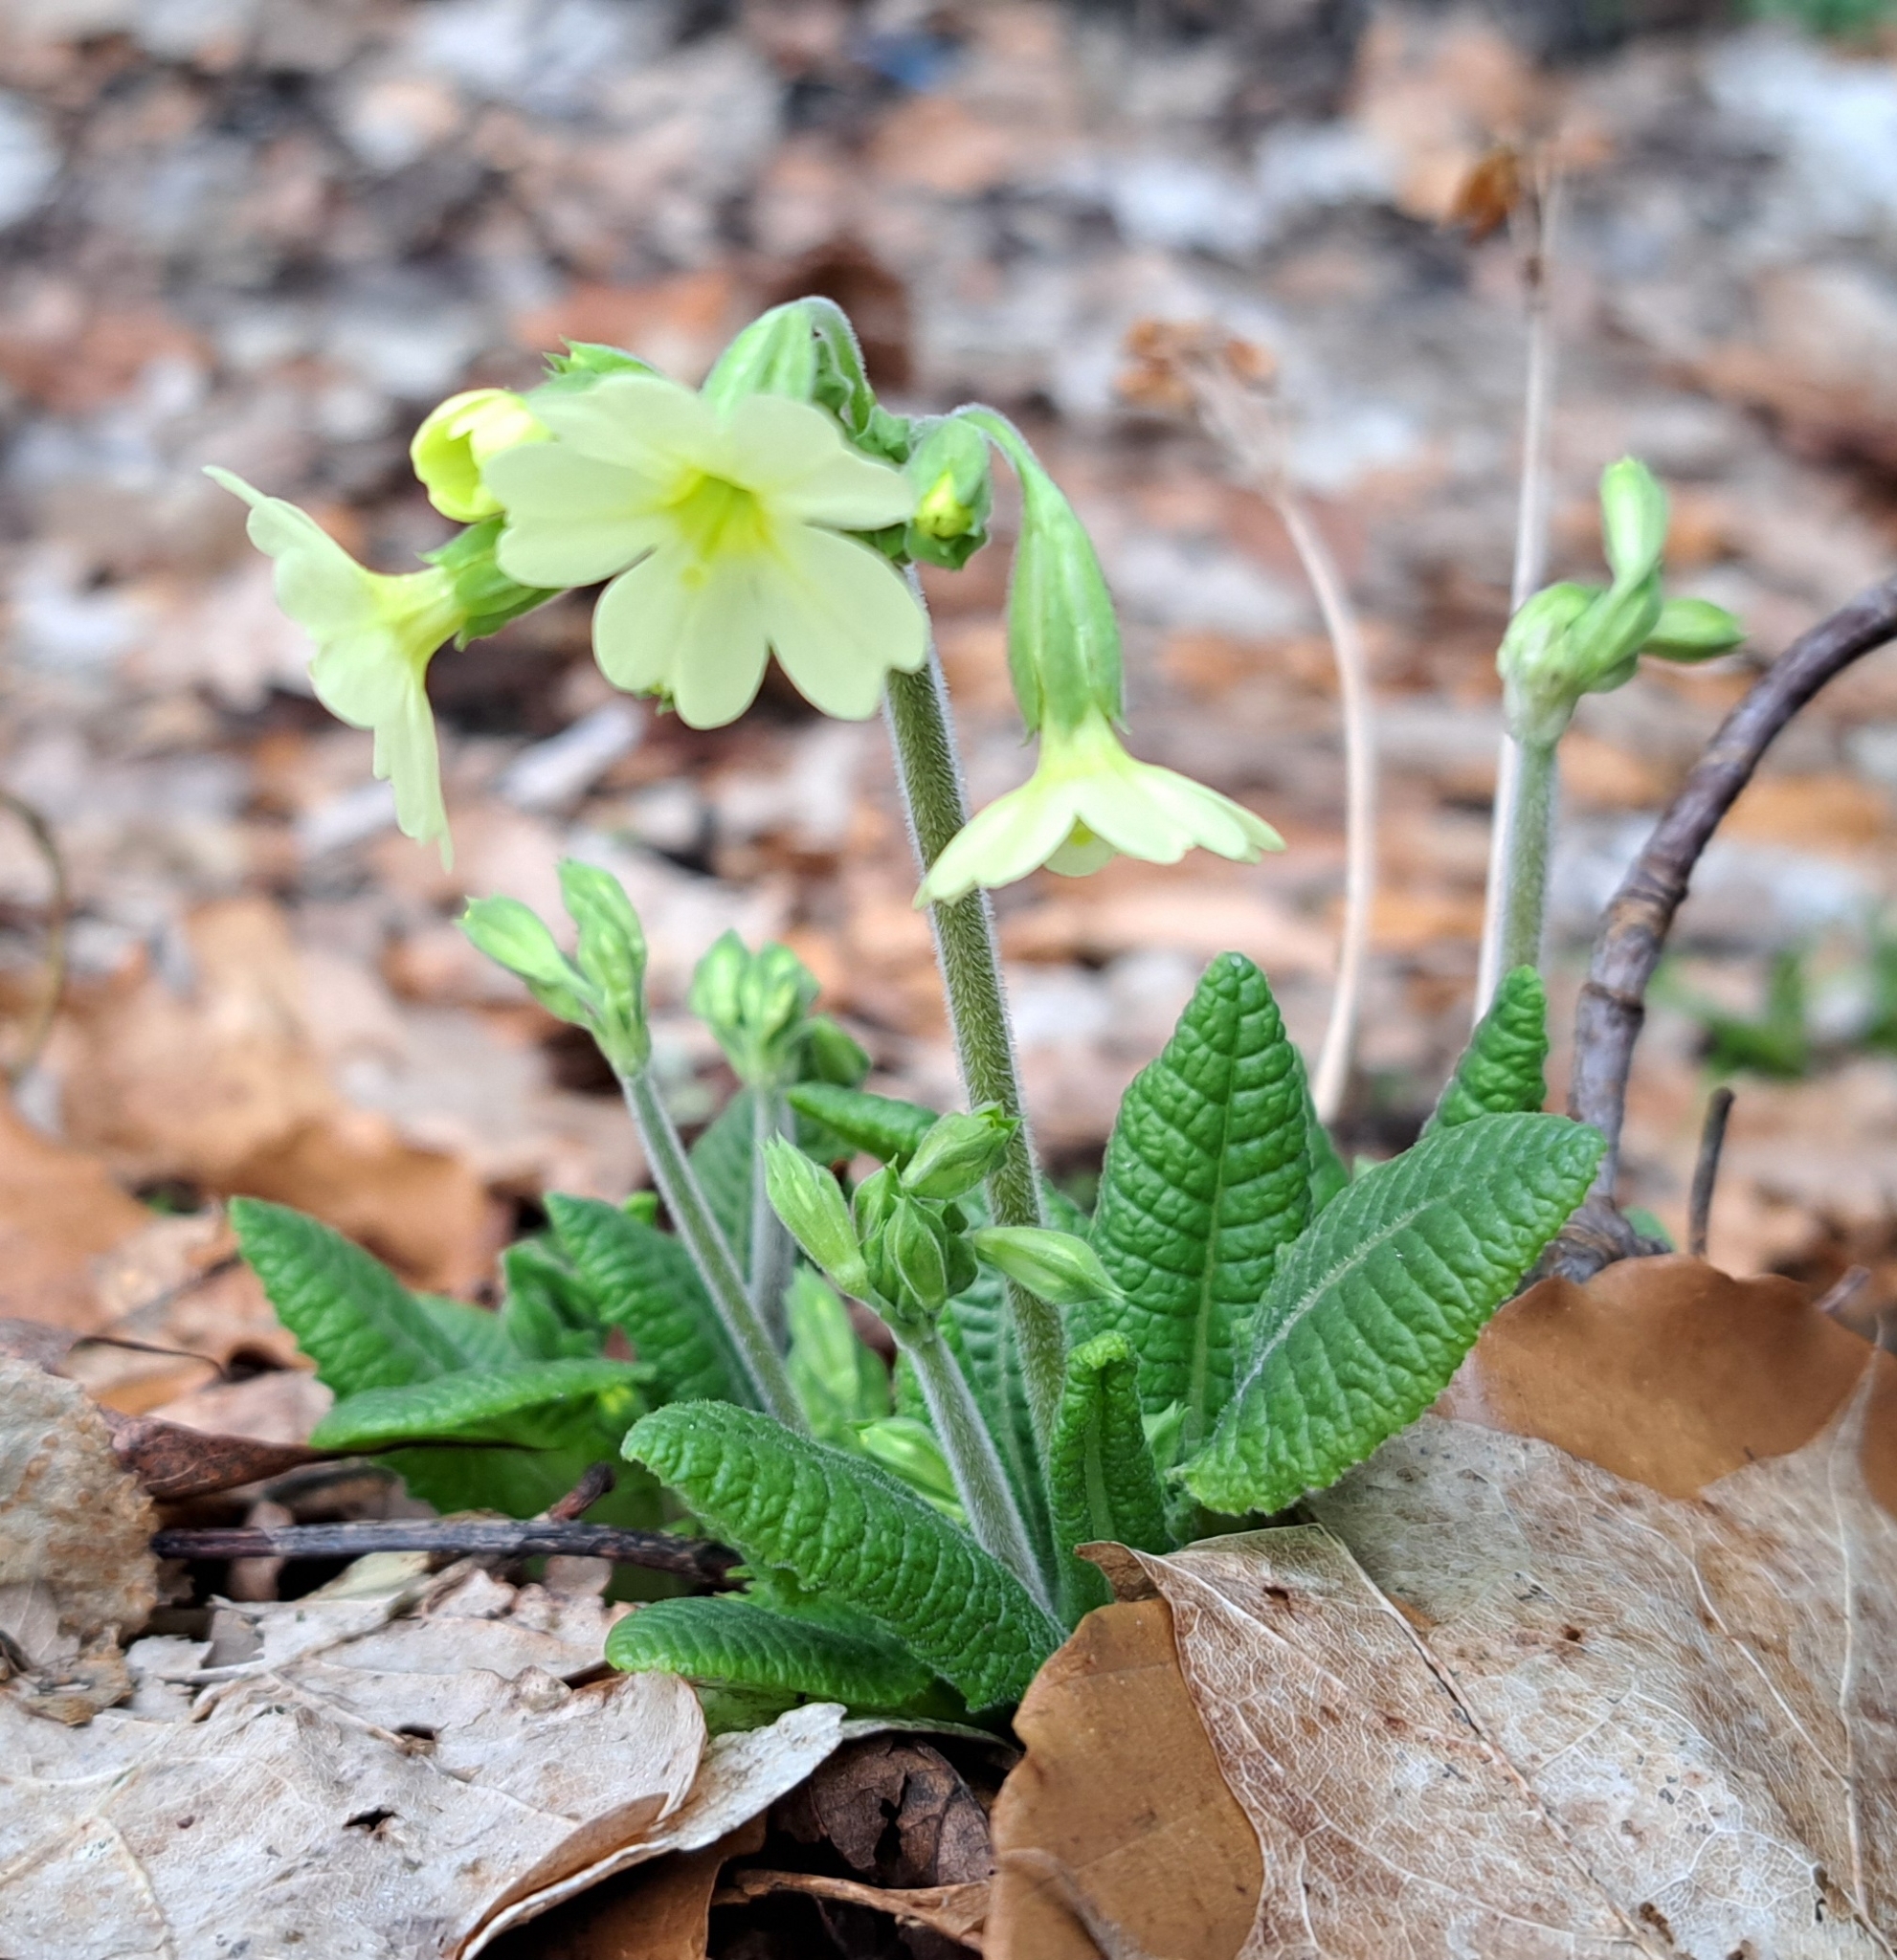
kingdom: Plantae
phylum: Tracheophyta
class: Magnoliopsida
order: Ericales
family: Primulaceae
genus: Primula
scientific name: Primula elatior
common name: Oxlip
